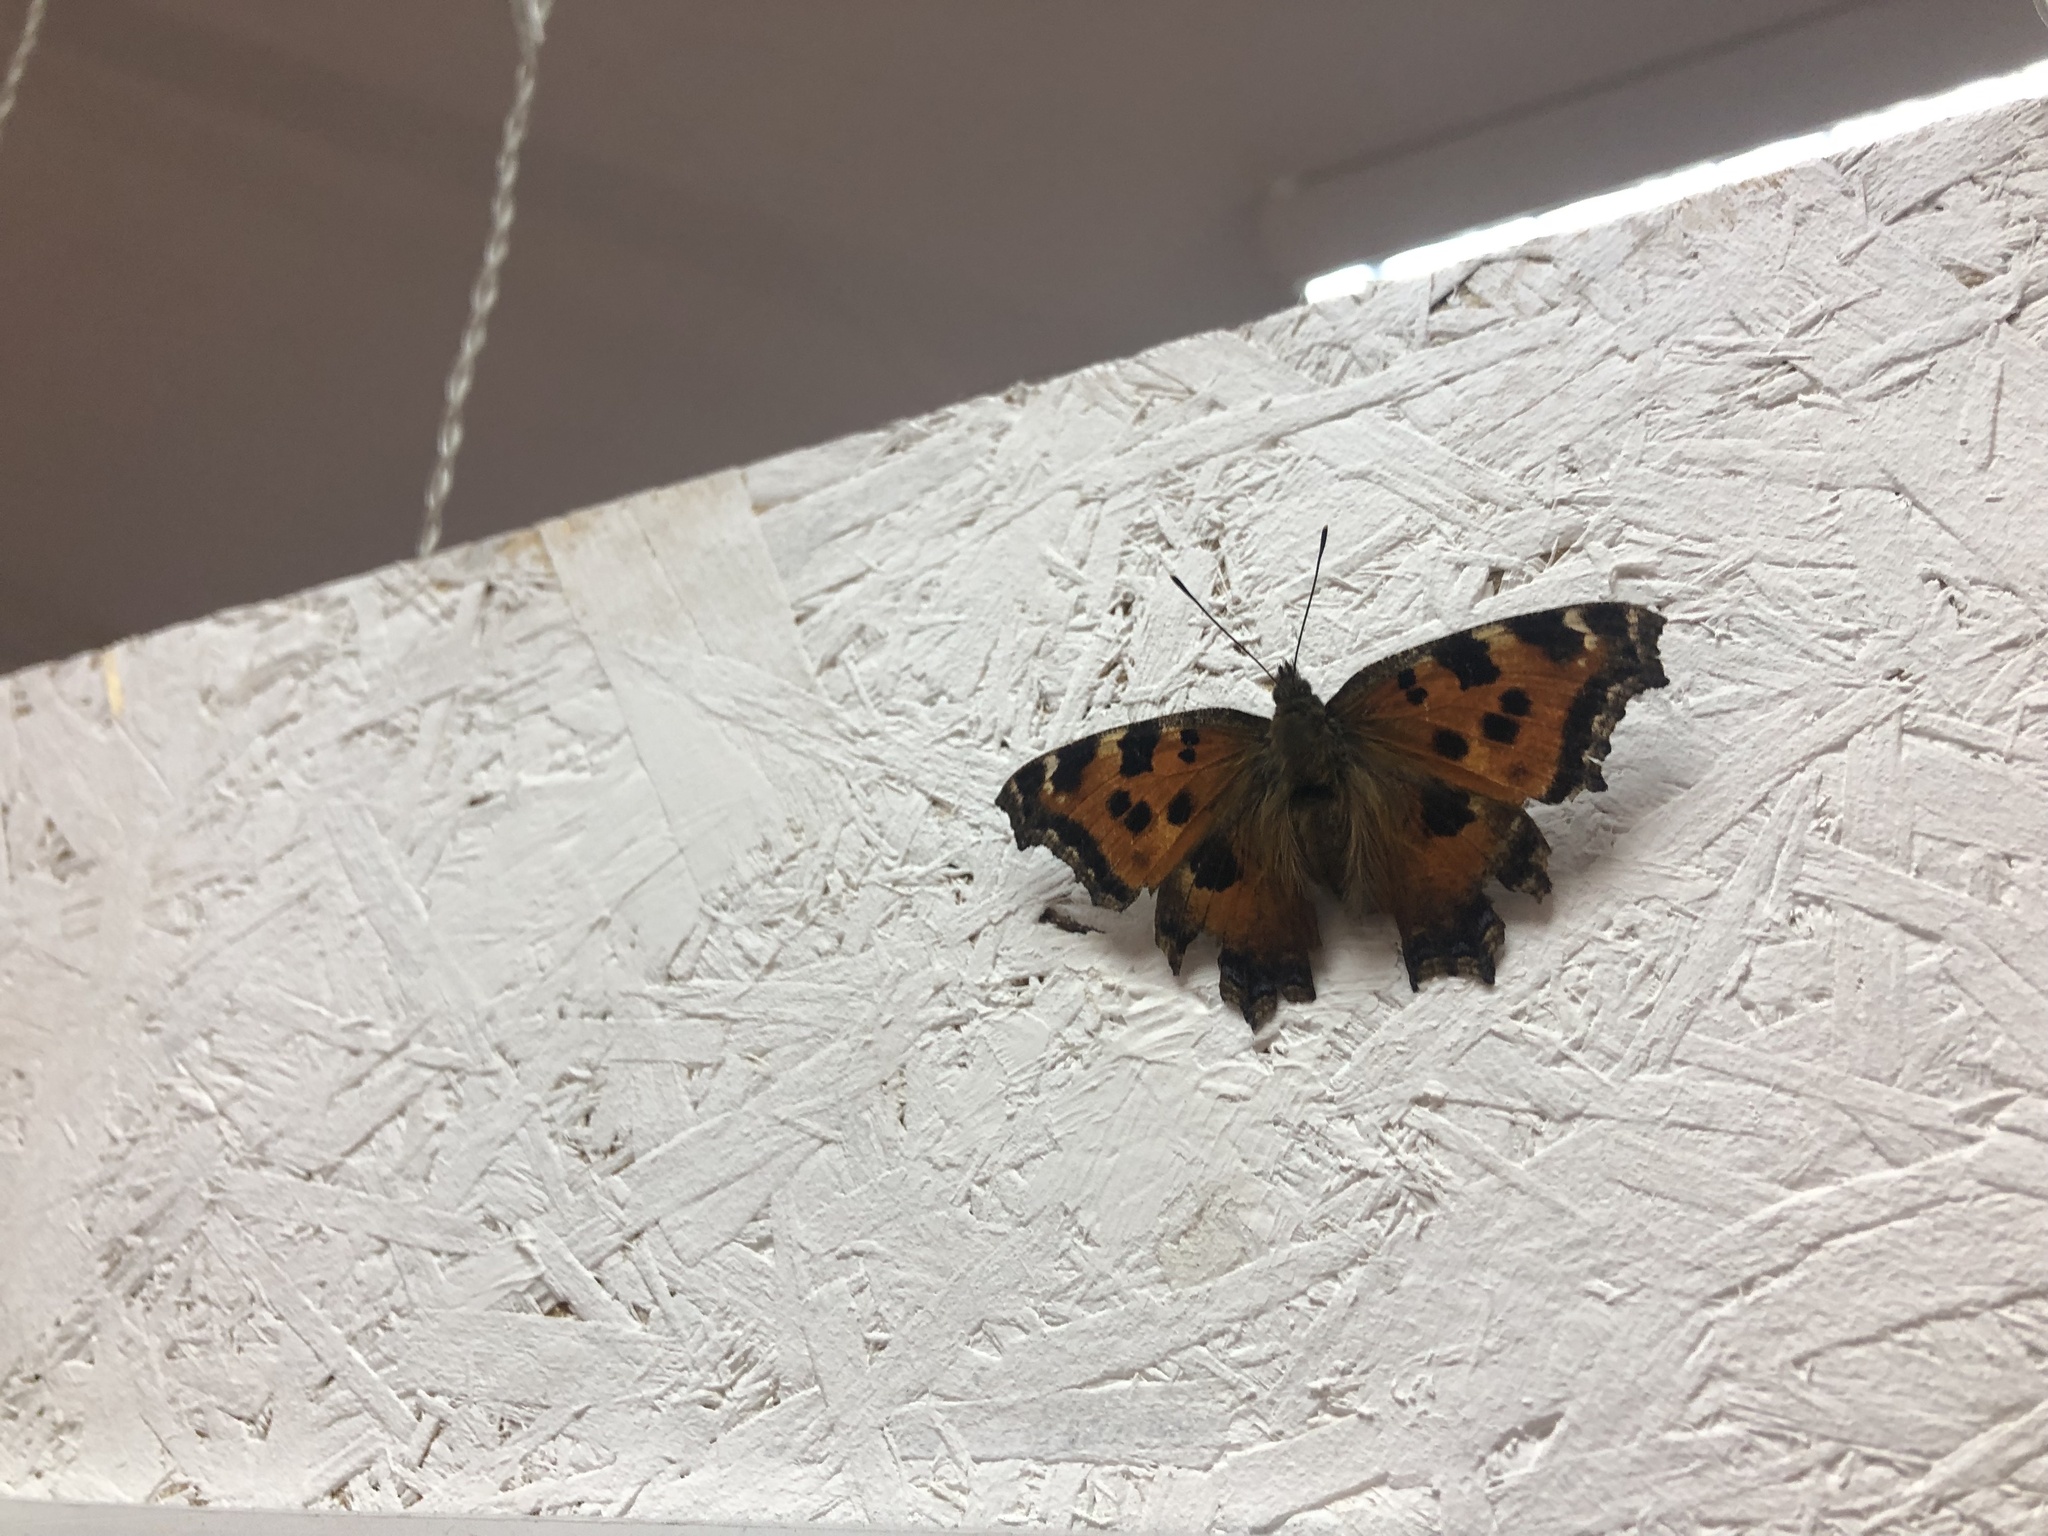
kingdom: Animalia
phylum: Arthropoda
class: Insecta
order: Lepidoptera
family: Nymphalidae
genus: Nymphalis
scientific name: Nymphalis xanthomelas
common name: Scarce tortoiseshell
